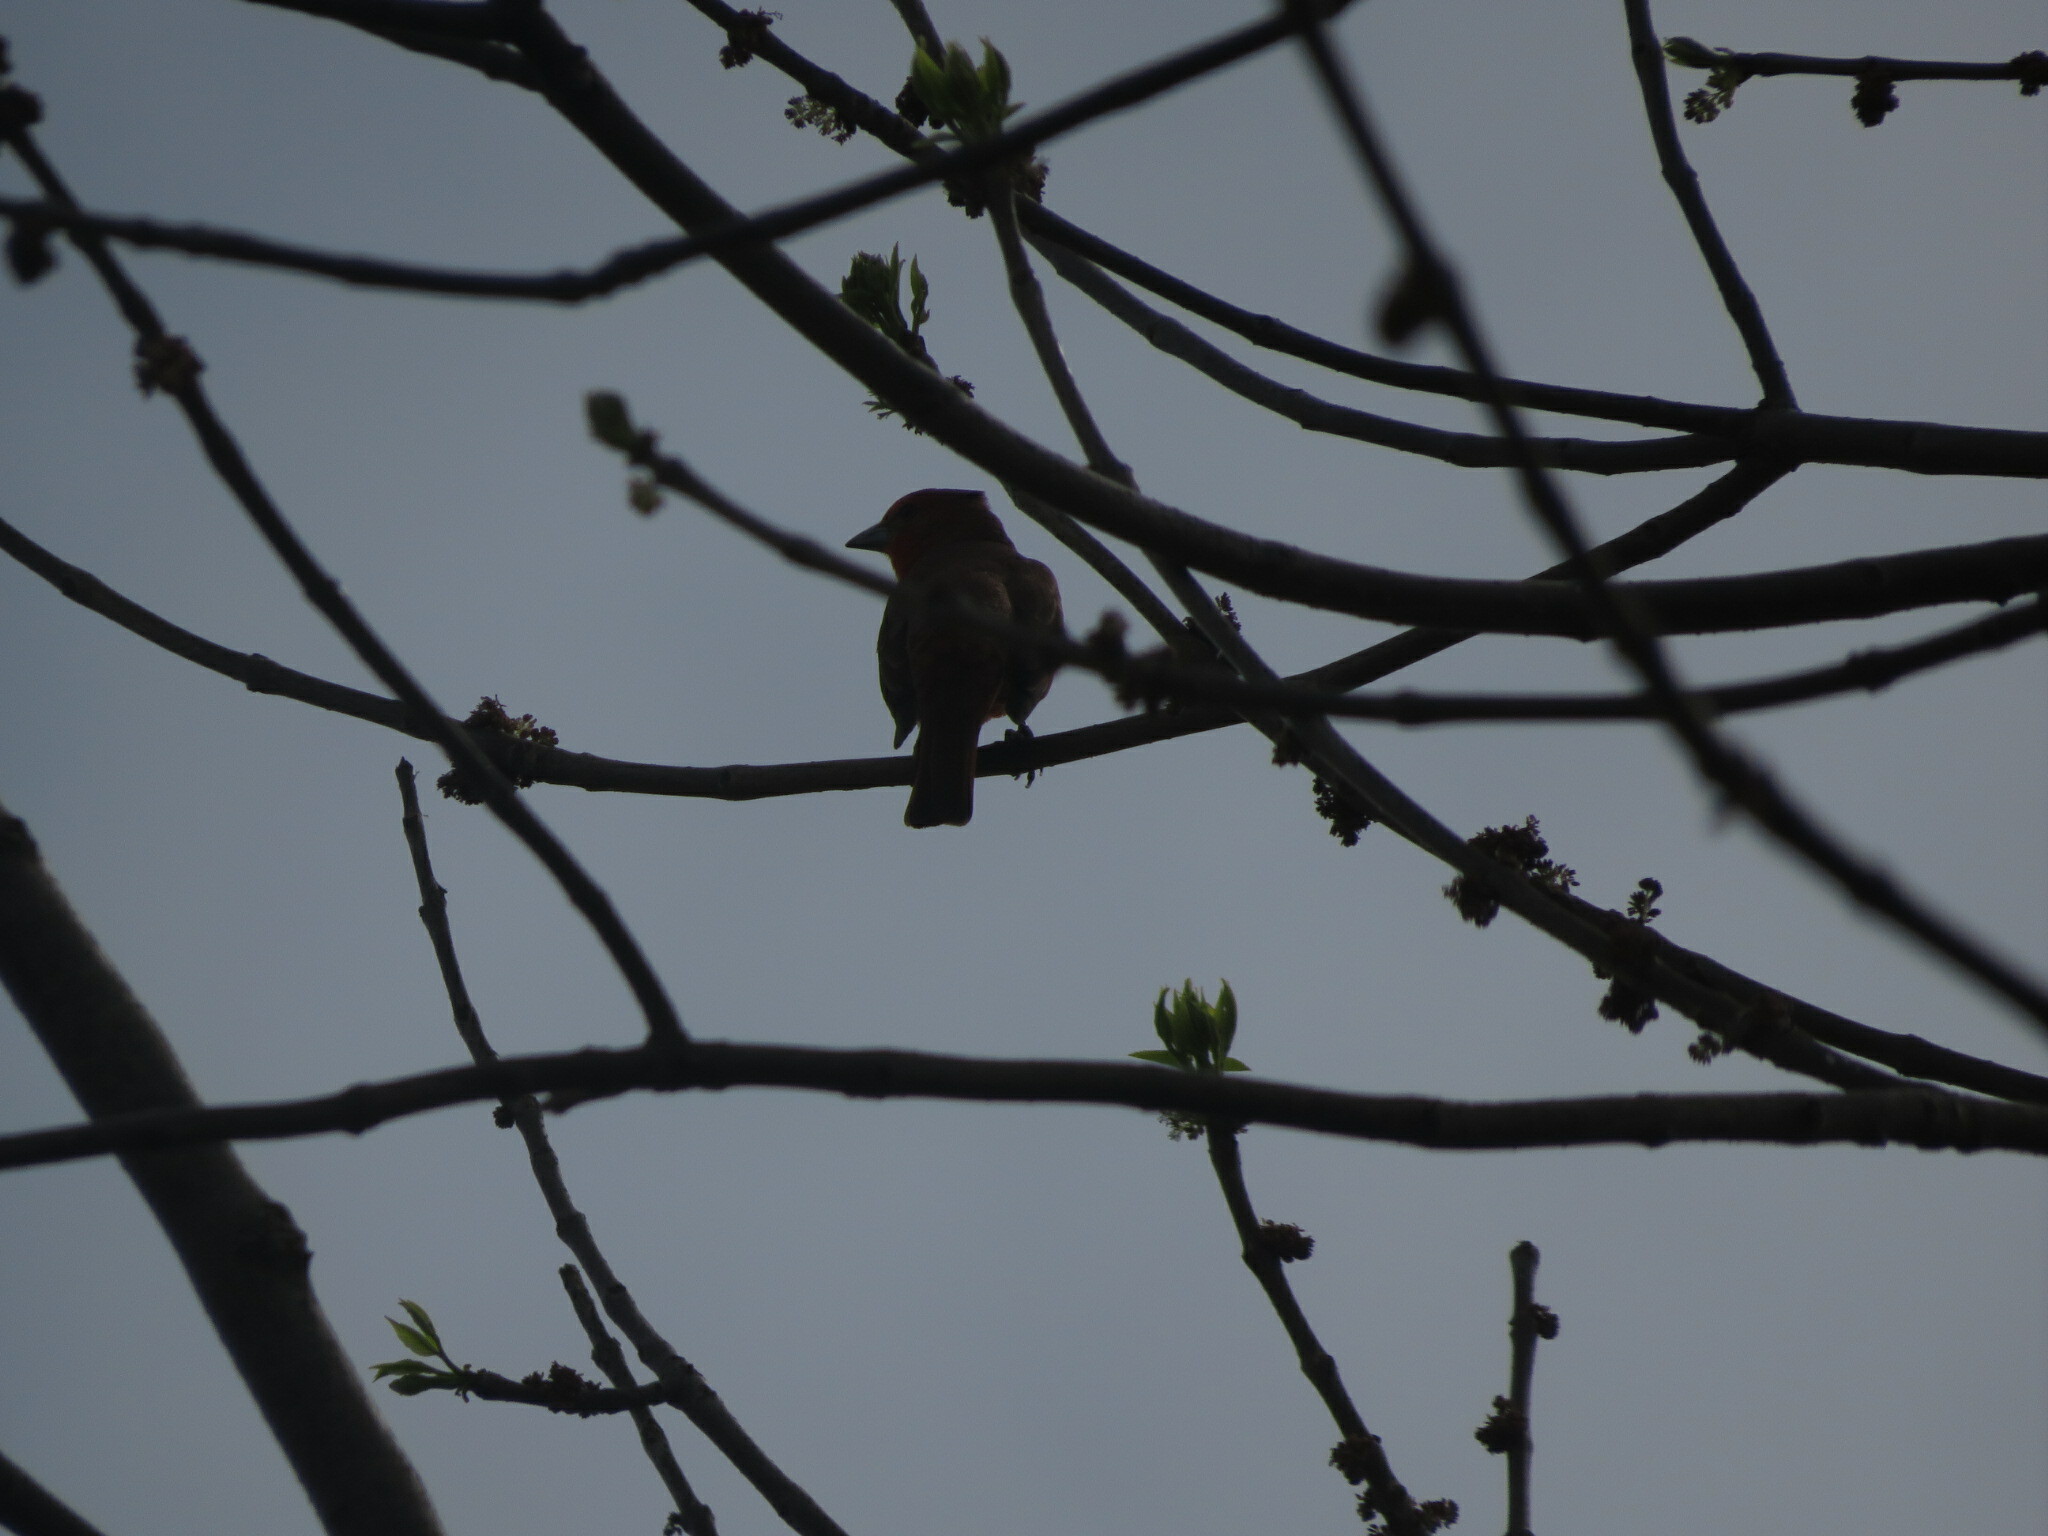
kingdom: Animalia
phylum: Chordata
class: Aves
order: Passeriformes
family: Cardinalidae
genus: Piranga
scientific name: Piranga flava
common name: Red tanager
